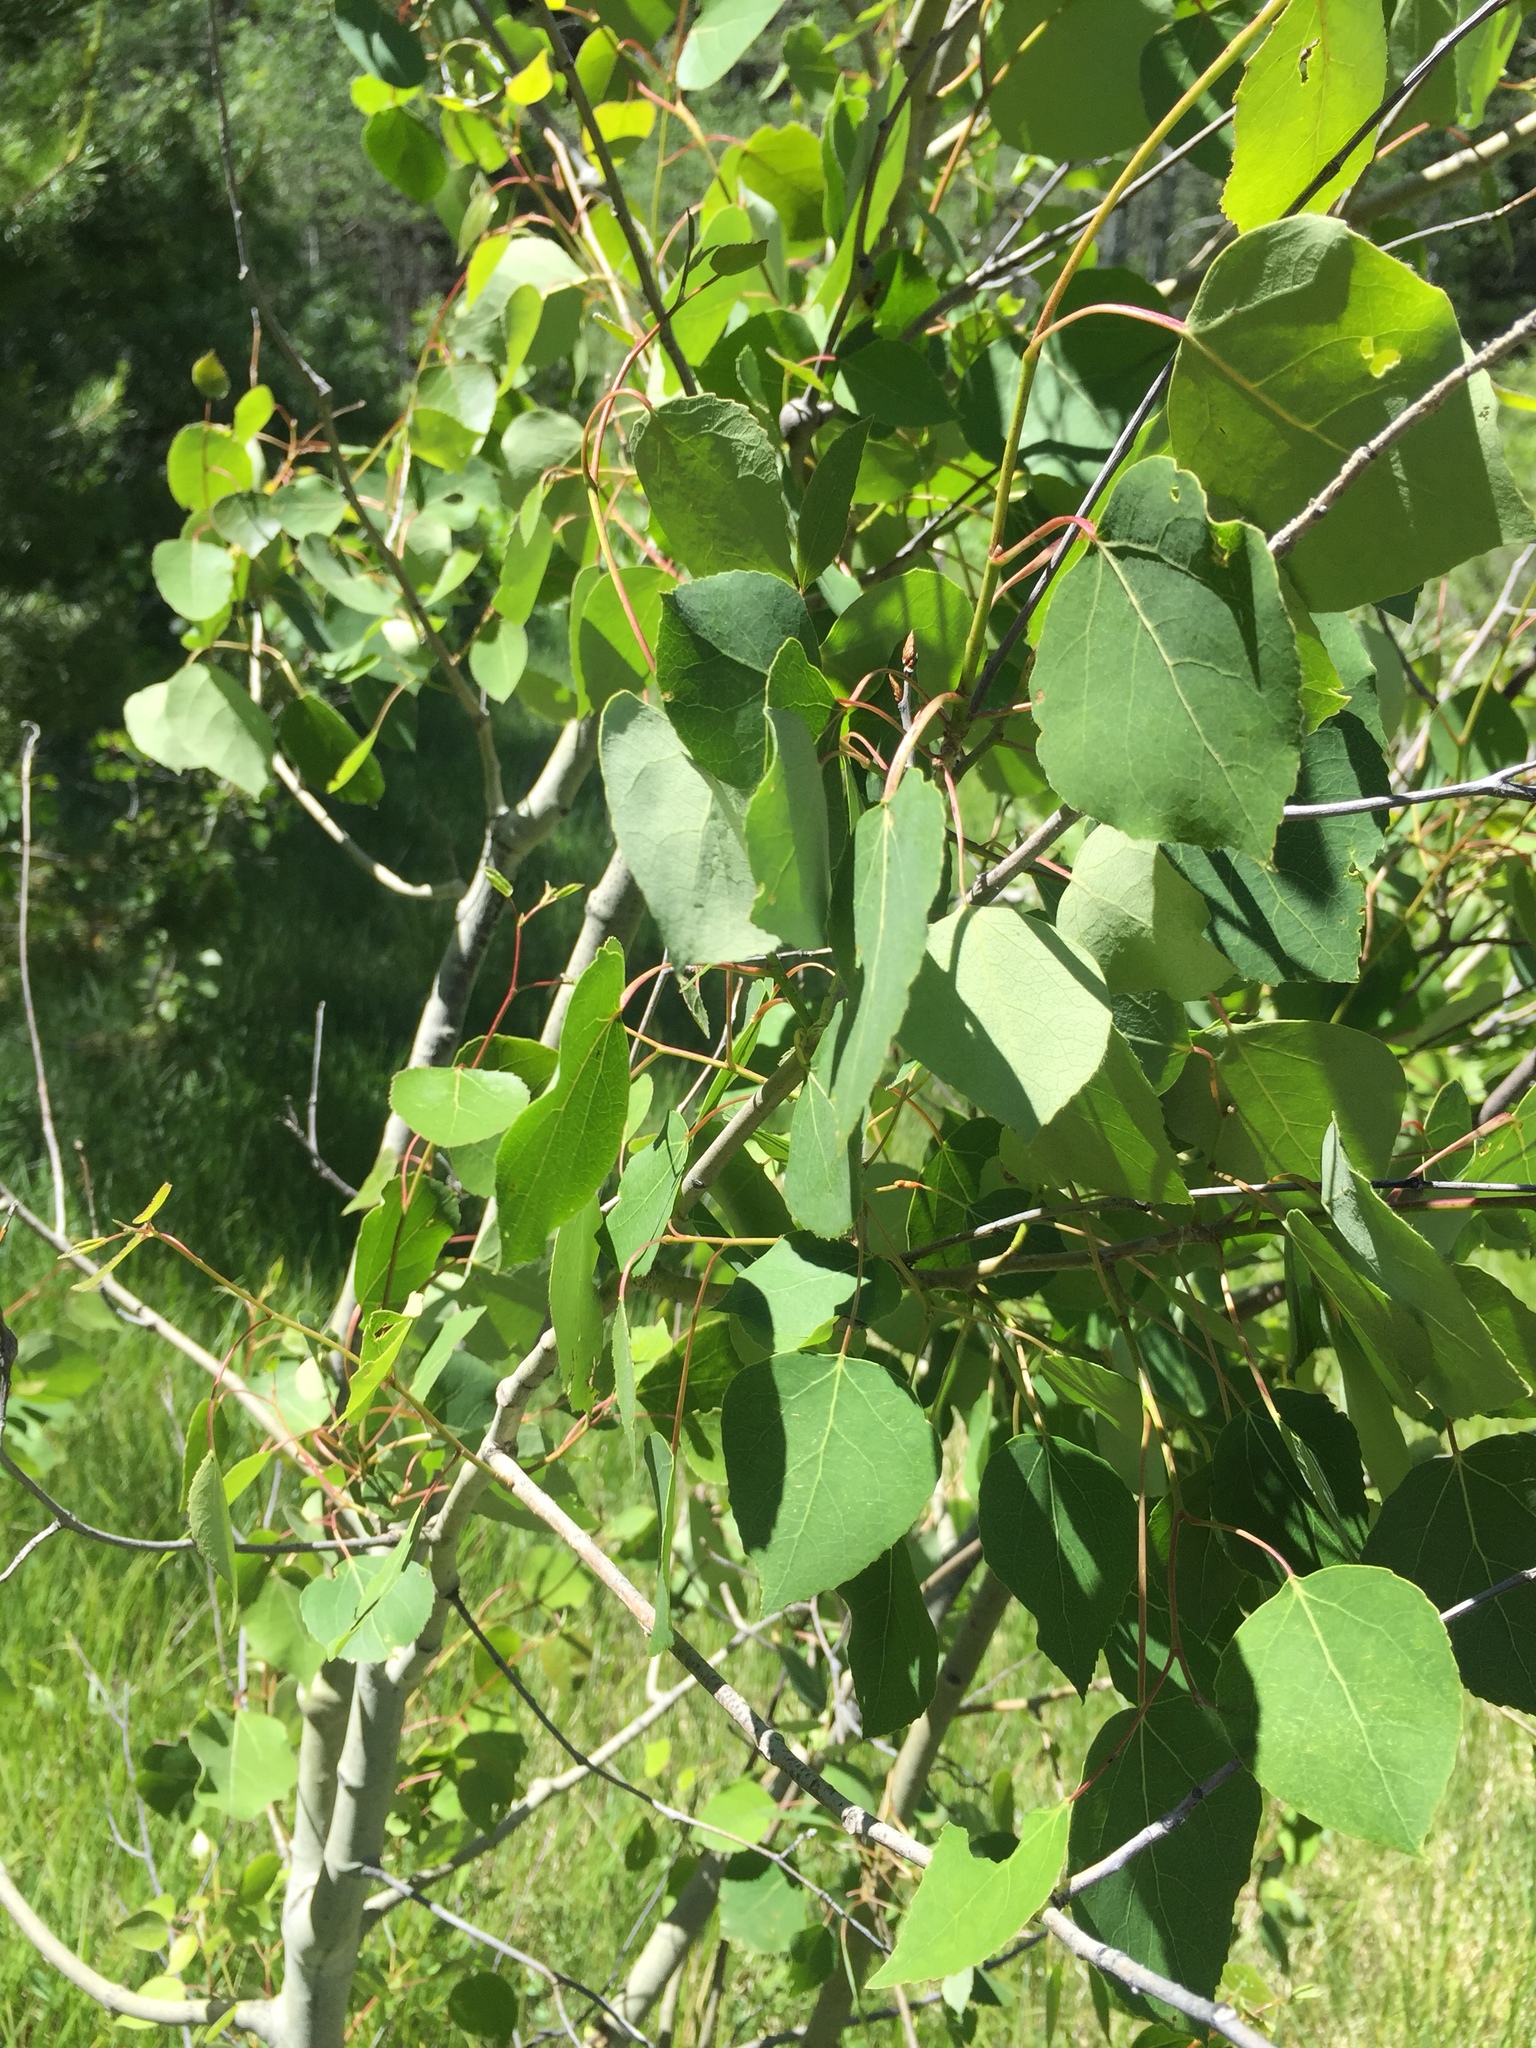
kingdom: Plantae
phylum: Tracheophyta
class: Magnoliopsida
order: Malpighiales
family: Salicaceae
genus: Populus
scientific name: Populus tremuloides
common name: Quaking aspen
